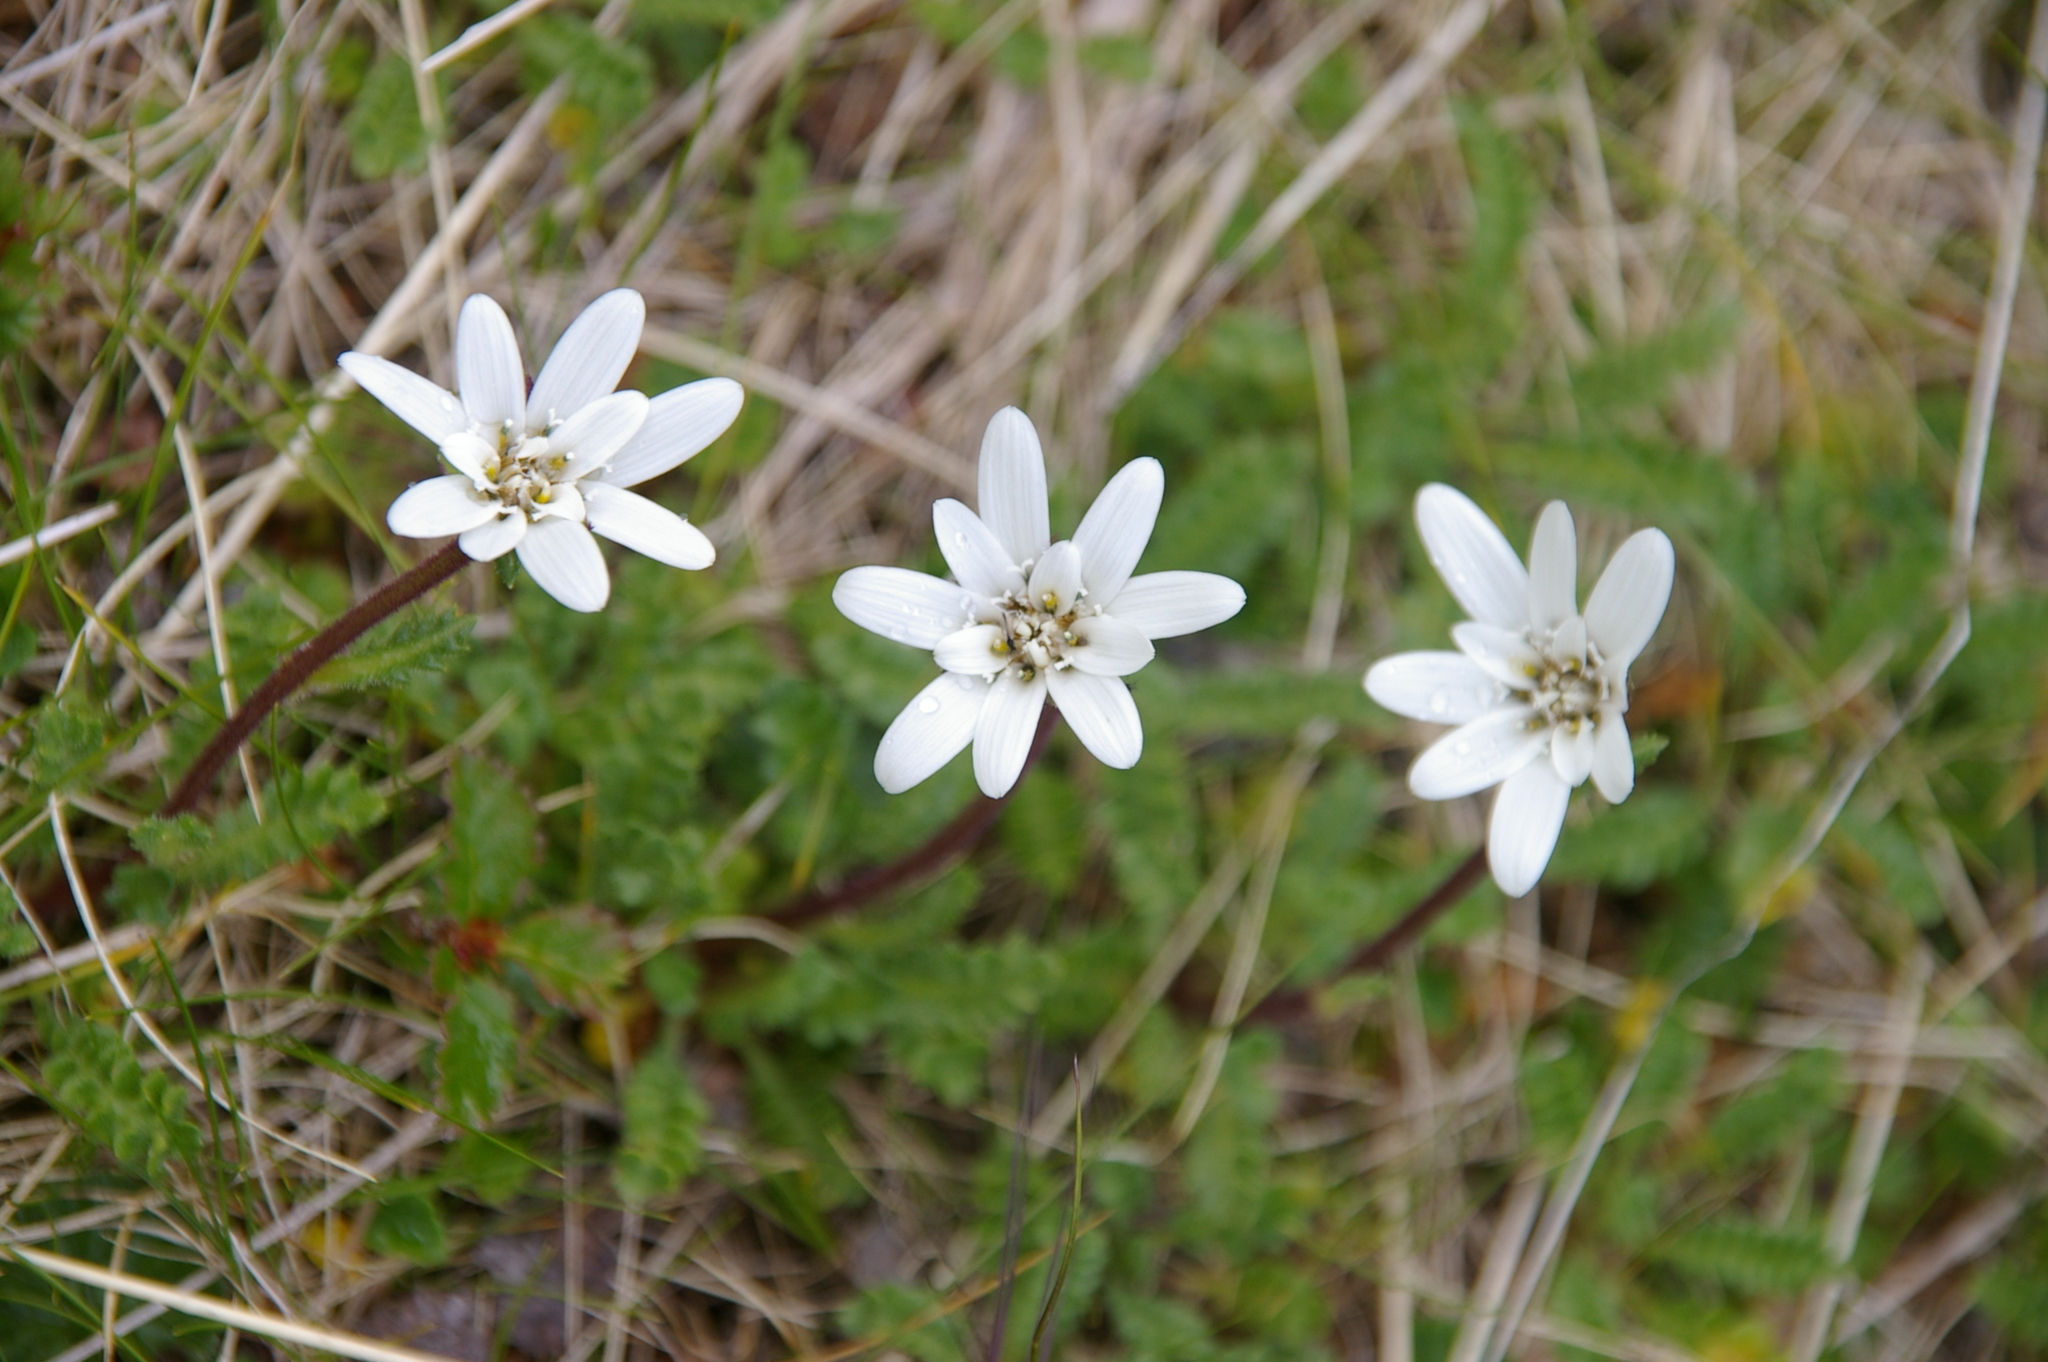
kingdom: Plantae
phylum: Tracheophyta
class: Magnoliopsida
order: Asterales
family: Asteraceae
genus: Perezia
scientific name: Perezia magellanica
